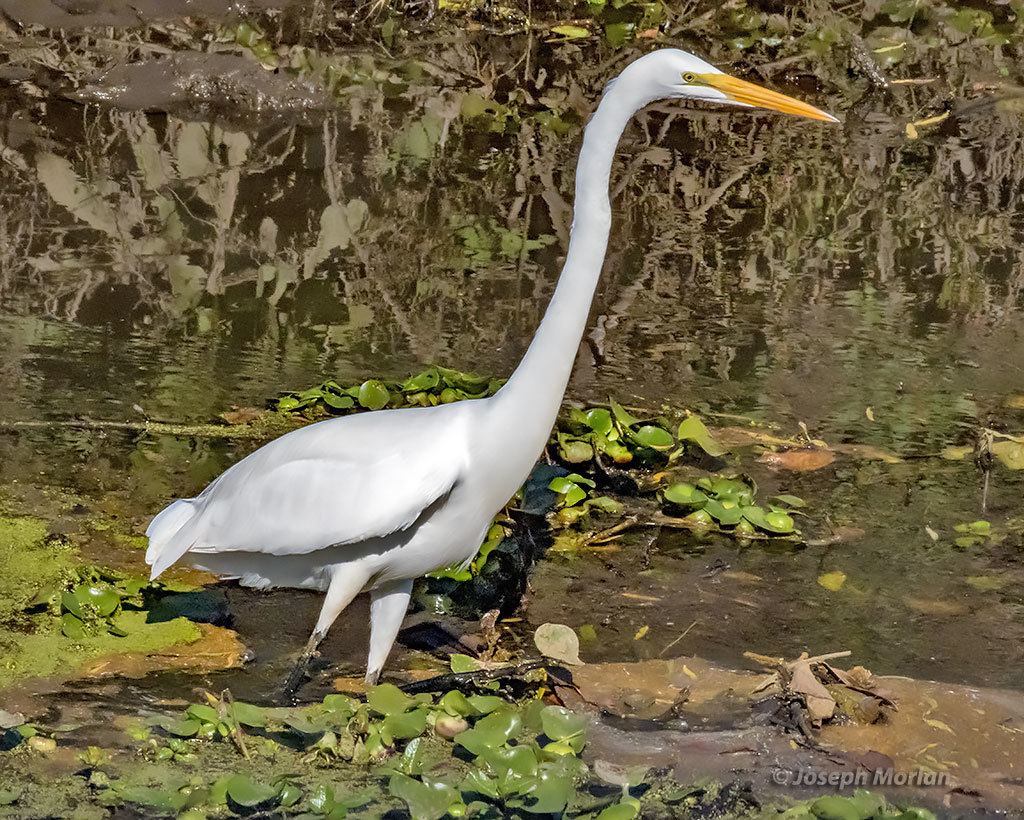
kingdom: Animalia
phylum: Chordata
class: Aves
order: Pelecaniformes
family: Ardeidae
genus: Ardea
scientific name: Ardea alba
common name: Great egret
